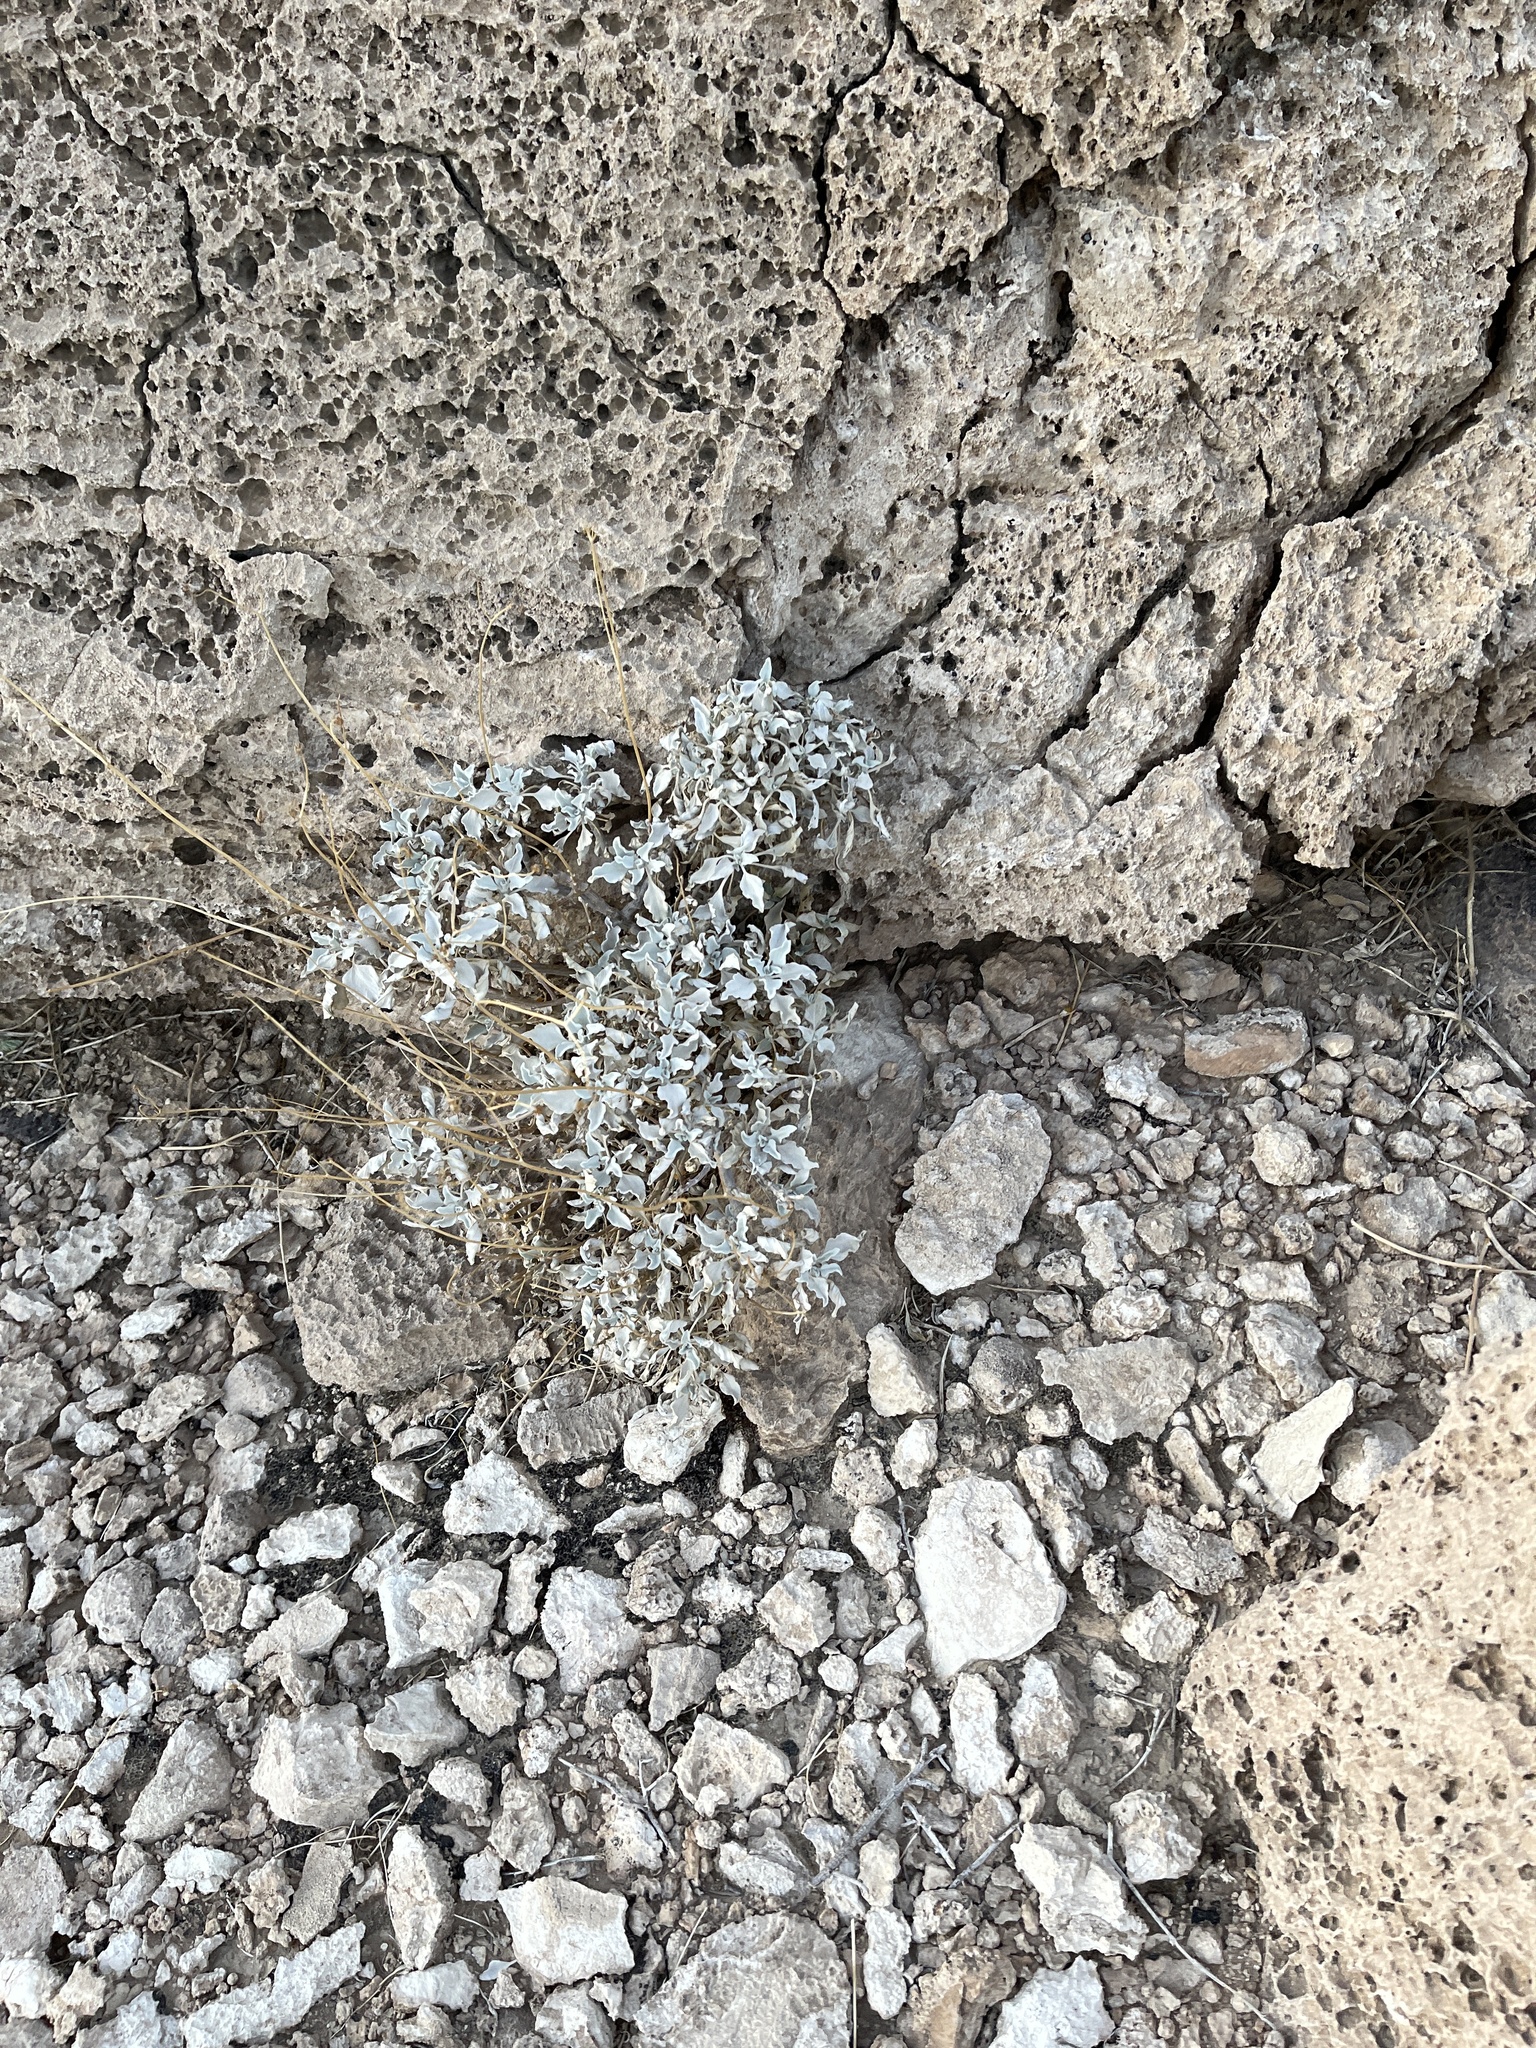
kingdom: Plantae
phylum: Tracheophyta
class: Magnoliopsida
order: Asterales
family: Asteraceae
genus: Encelia
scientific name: Encelia farinosa
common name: Brittlebush
